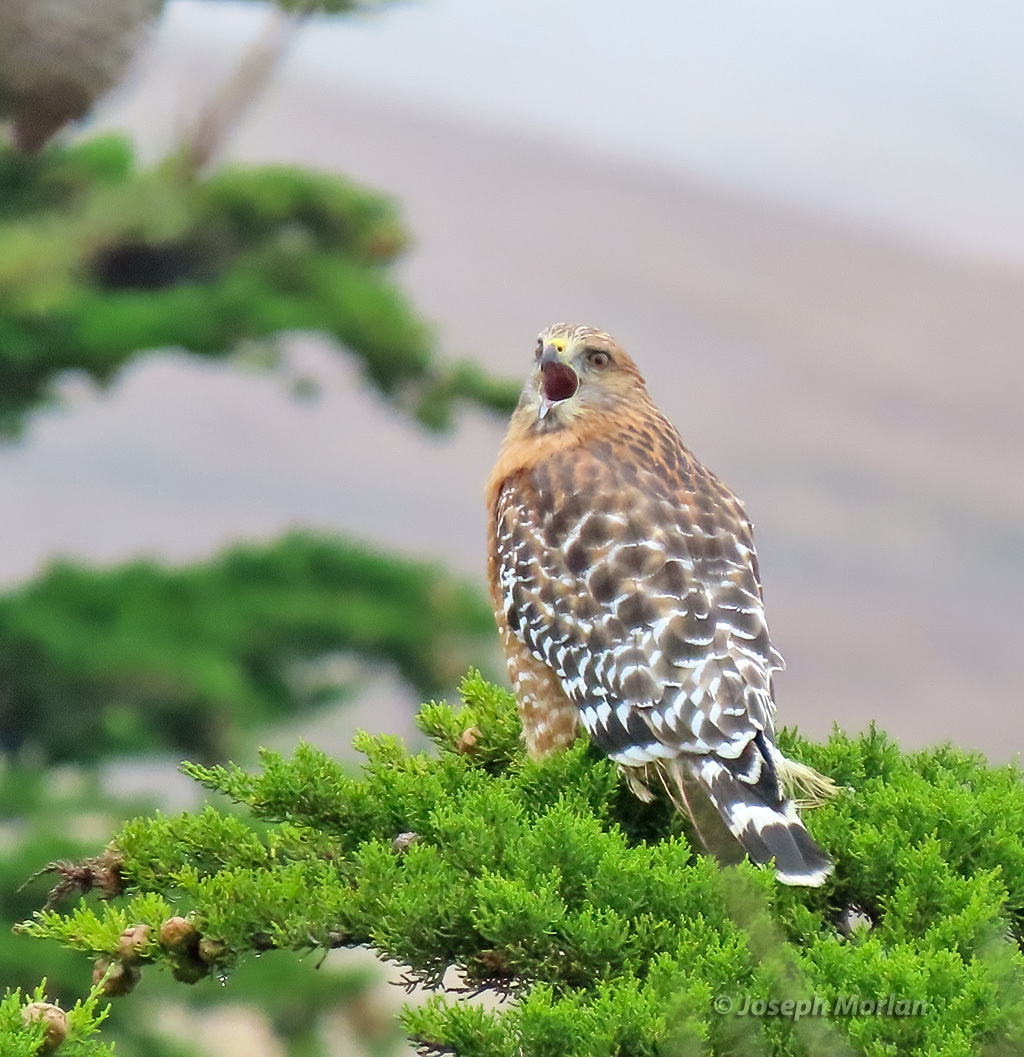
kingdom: Animalia
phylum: Chordata
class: Aves
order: Accipitriformes
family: Accipitridae
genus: Buteo
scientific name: Buteo lineatus
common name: Red-shouldered hawk
